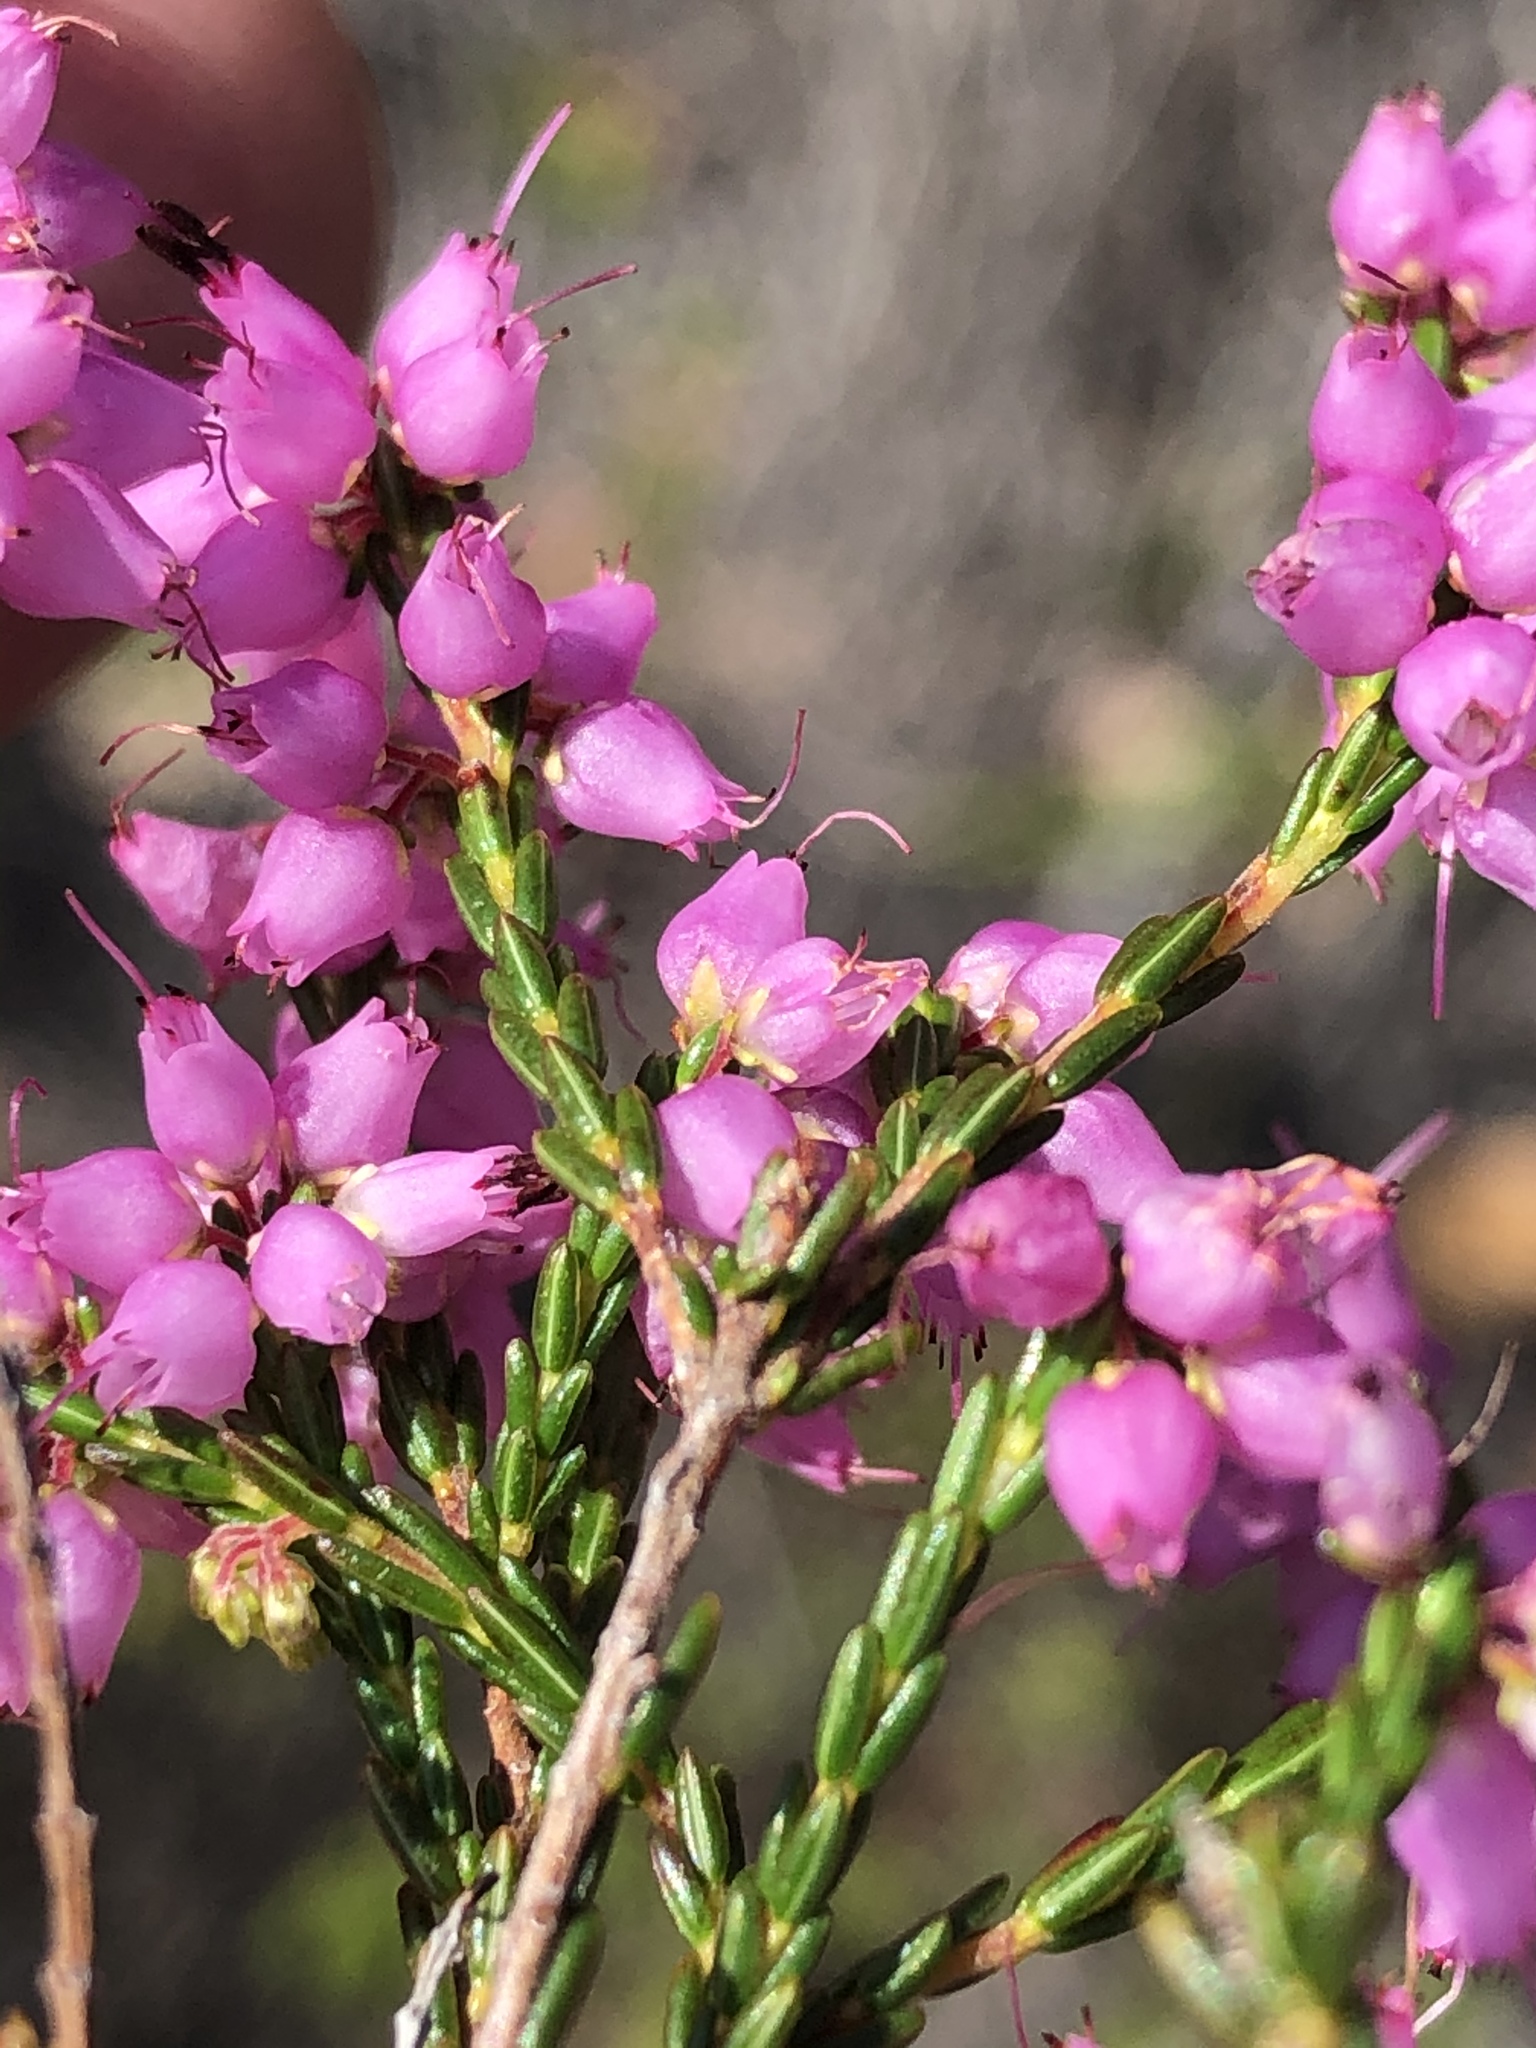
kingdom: Plantae
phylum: Tracheophyta
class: Magnoliopsida
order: Ericales
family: Ericaceae
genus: Erica
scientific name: Erica nutans
